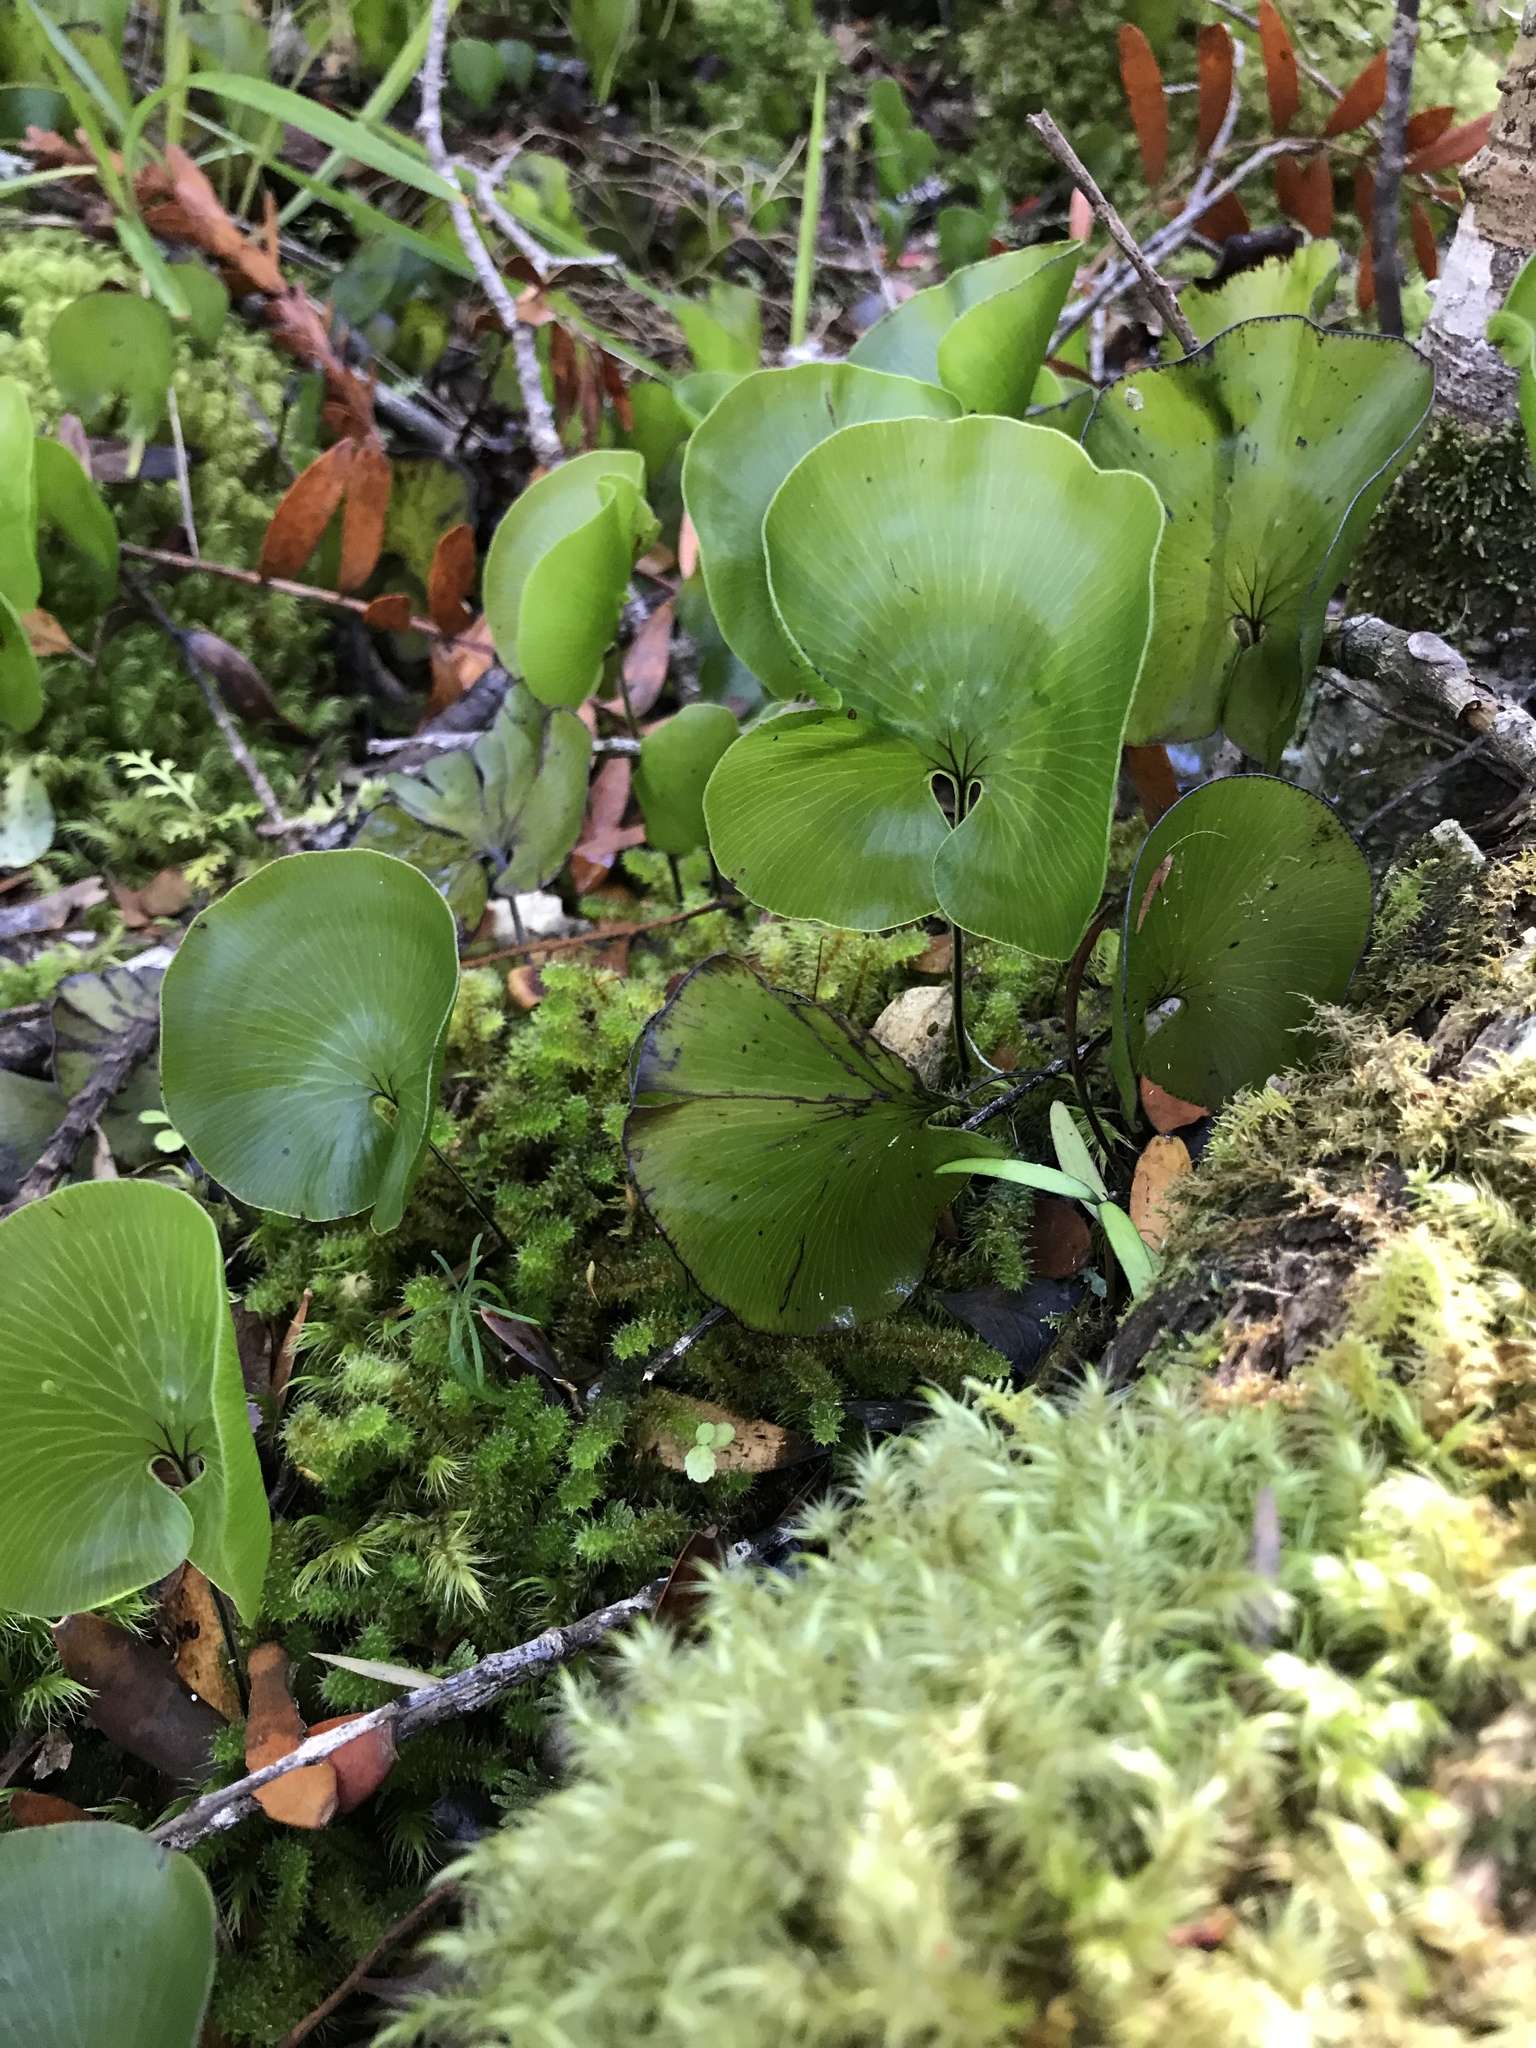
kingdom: Plantae
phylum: Tracheophyta
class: Polypodiopsida
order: Hymenophyllales
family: Hymenophyllaceae
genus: Hymenophyllum
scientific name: Hymenophyllum nephrophyllum
